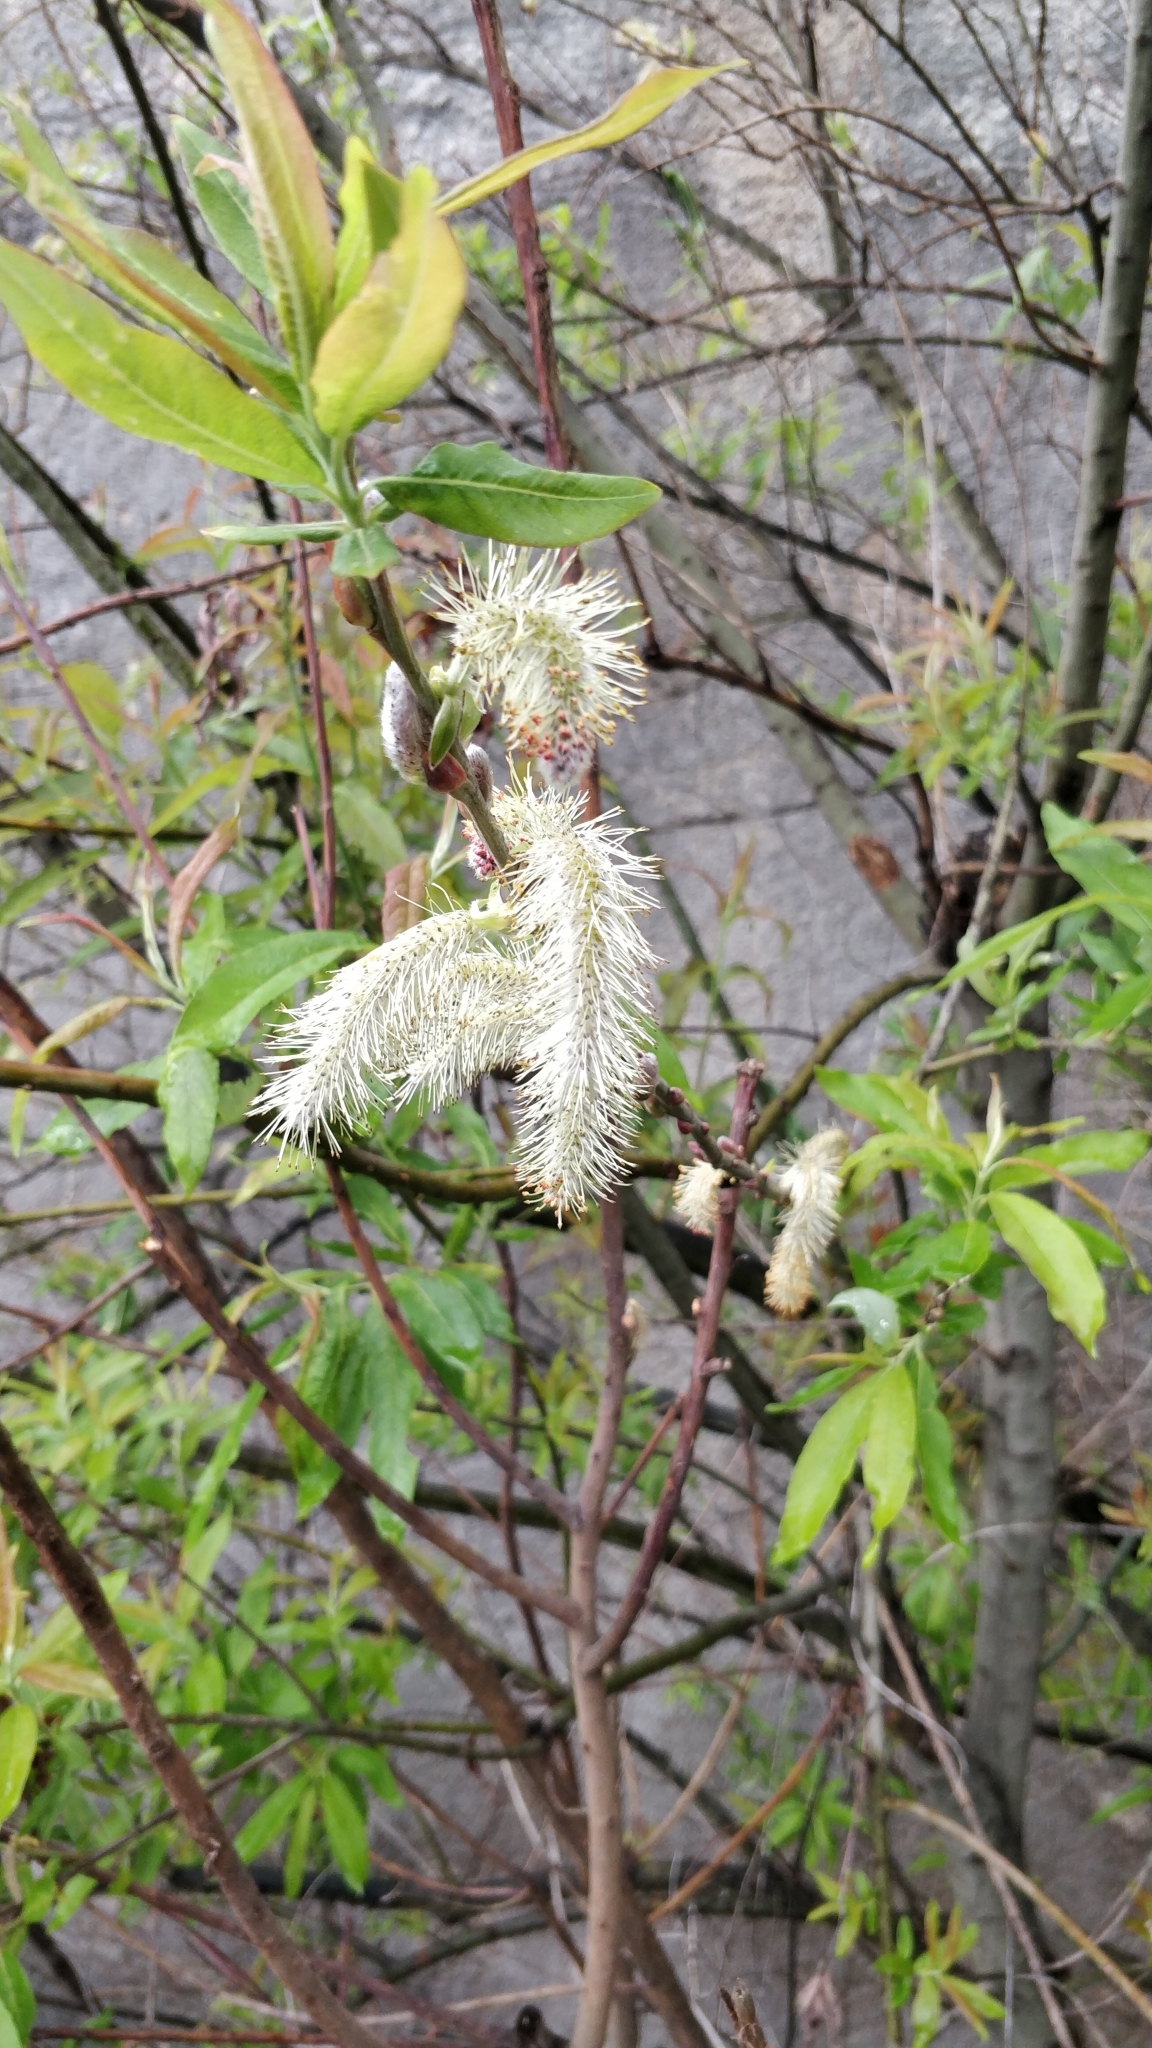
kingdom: Plantae
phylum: Tracheophyta
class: Magnoliopsida
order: Malpighiales
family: Salicaceae
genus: Salix
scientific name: Salix canariensis
